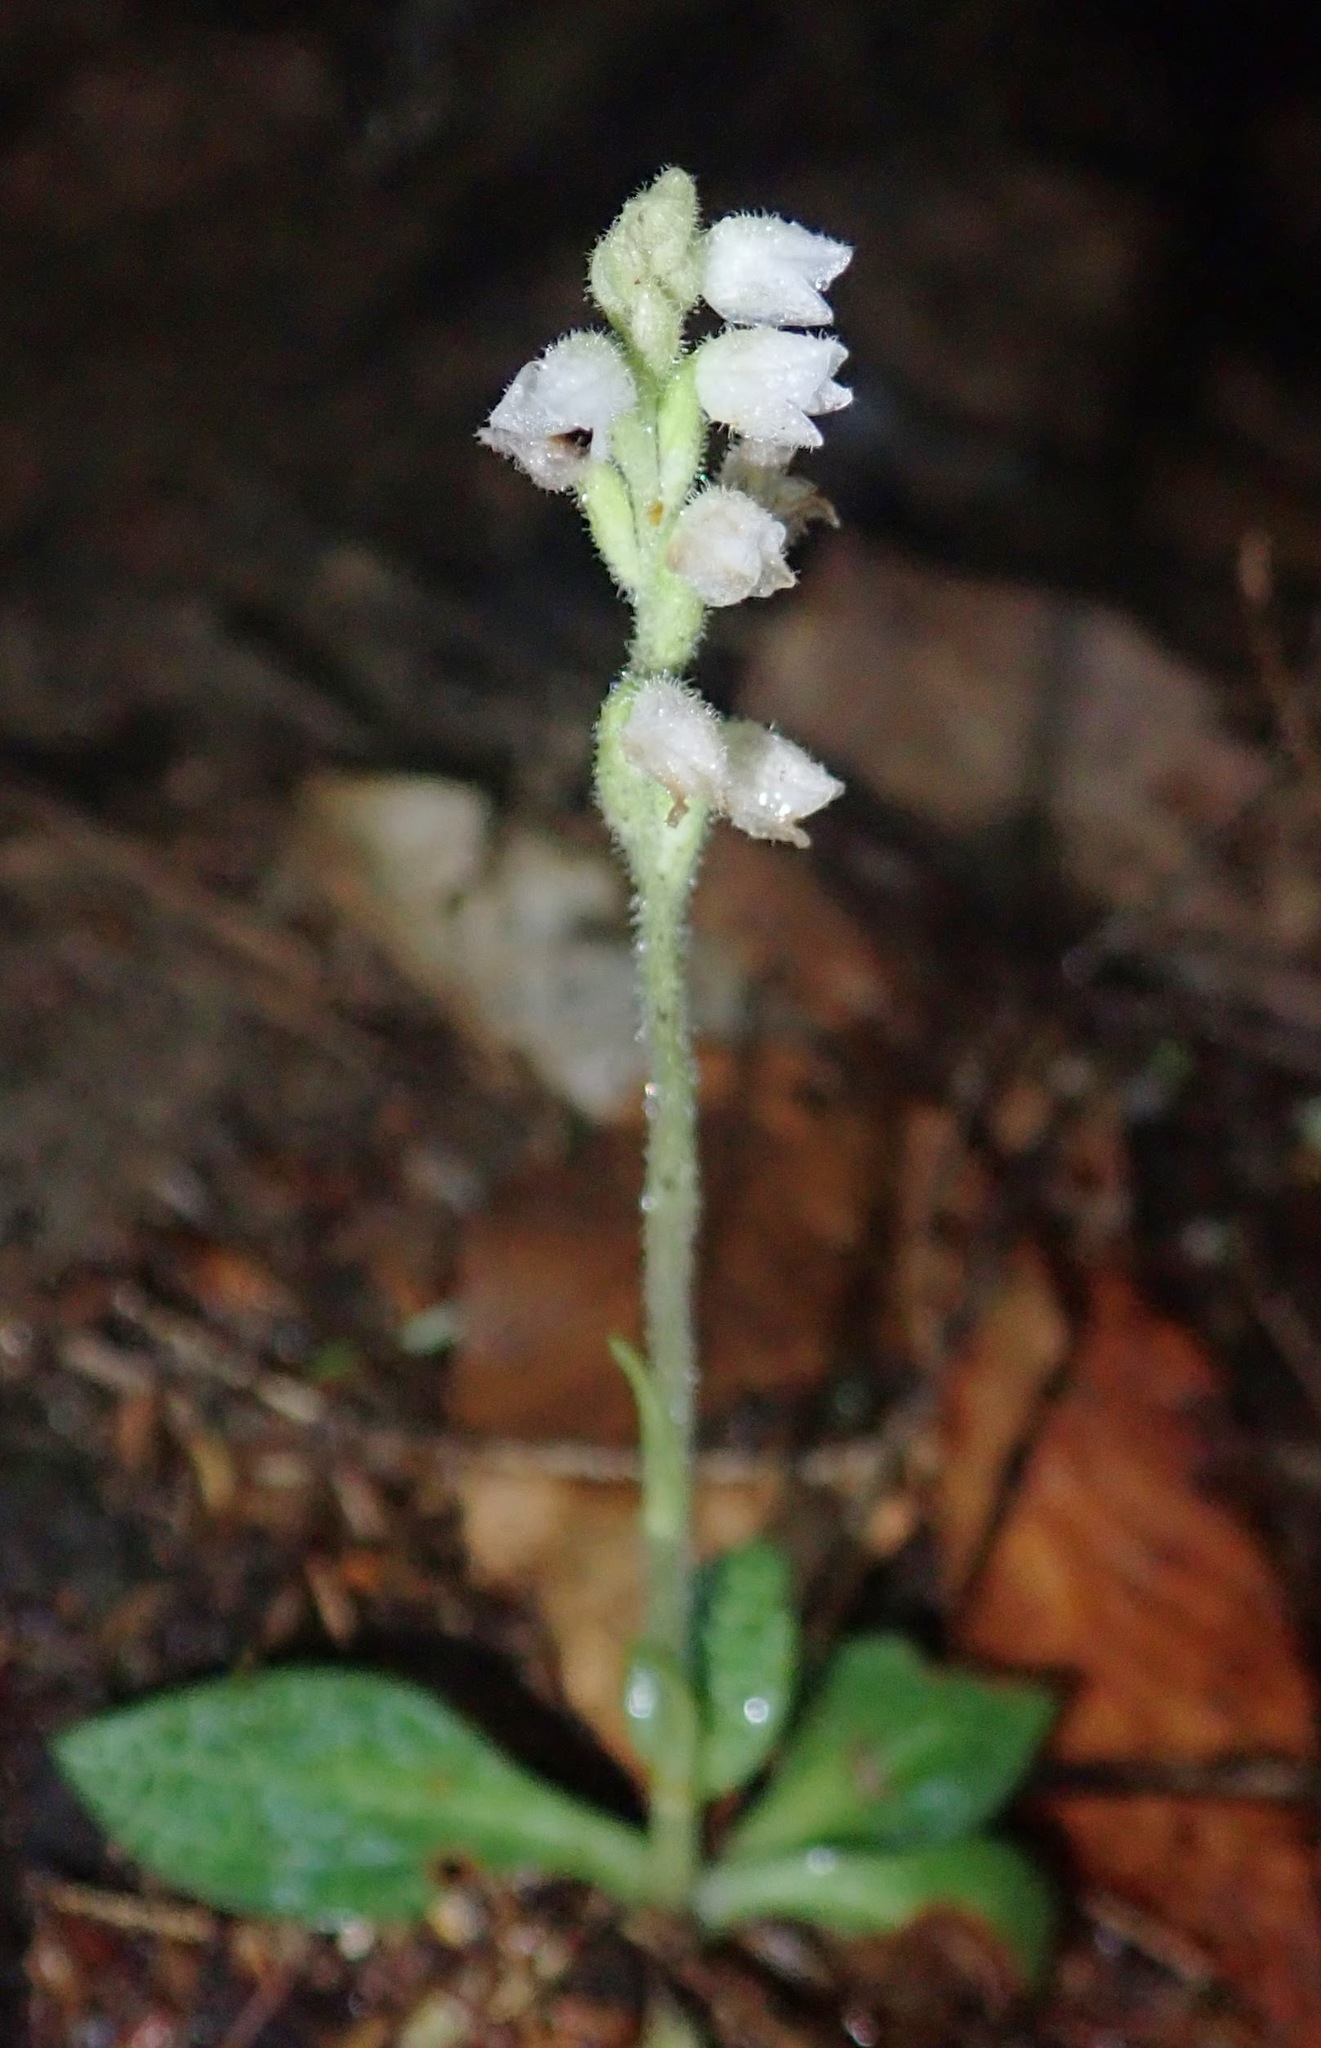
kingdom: Plantae
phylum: Tracheophyta
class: Liliopsida
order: Asparagales
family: Orchidaceae
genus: Goodyera
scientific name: Goodyera tesselata
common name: Checkered rattlesnake-plantain
